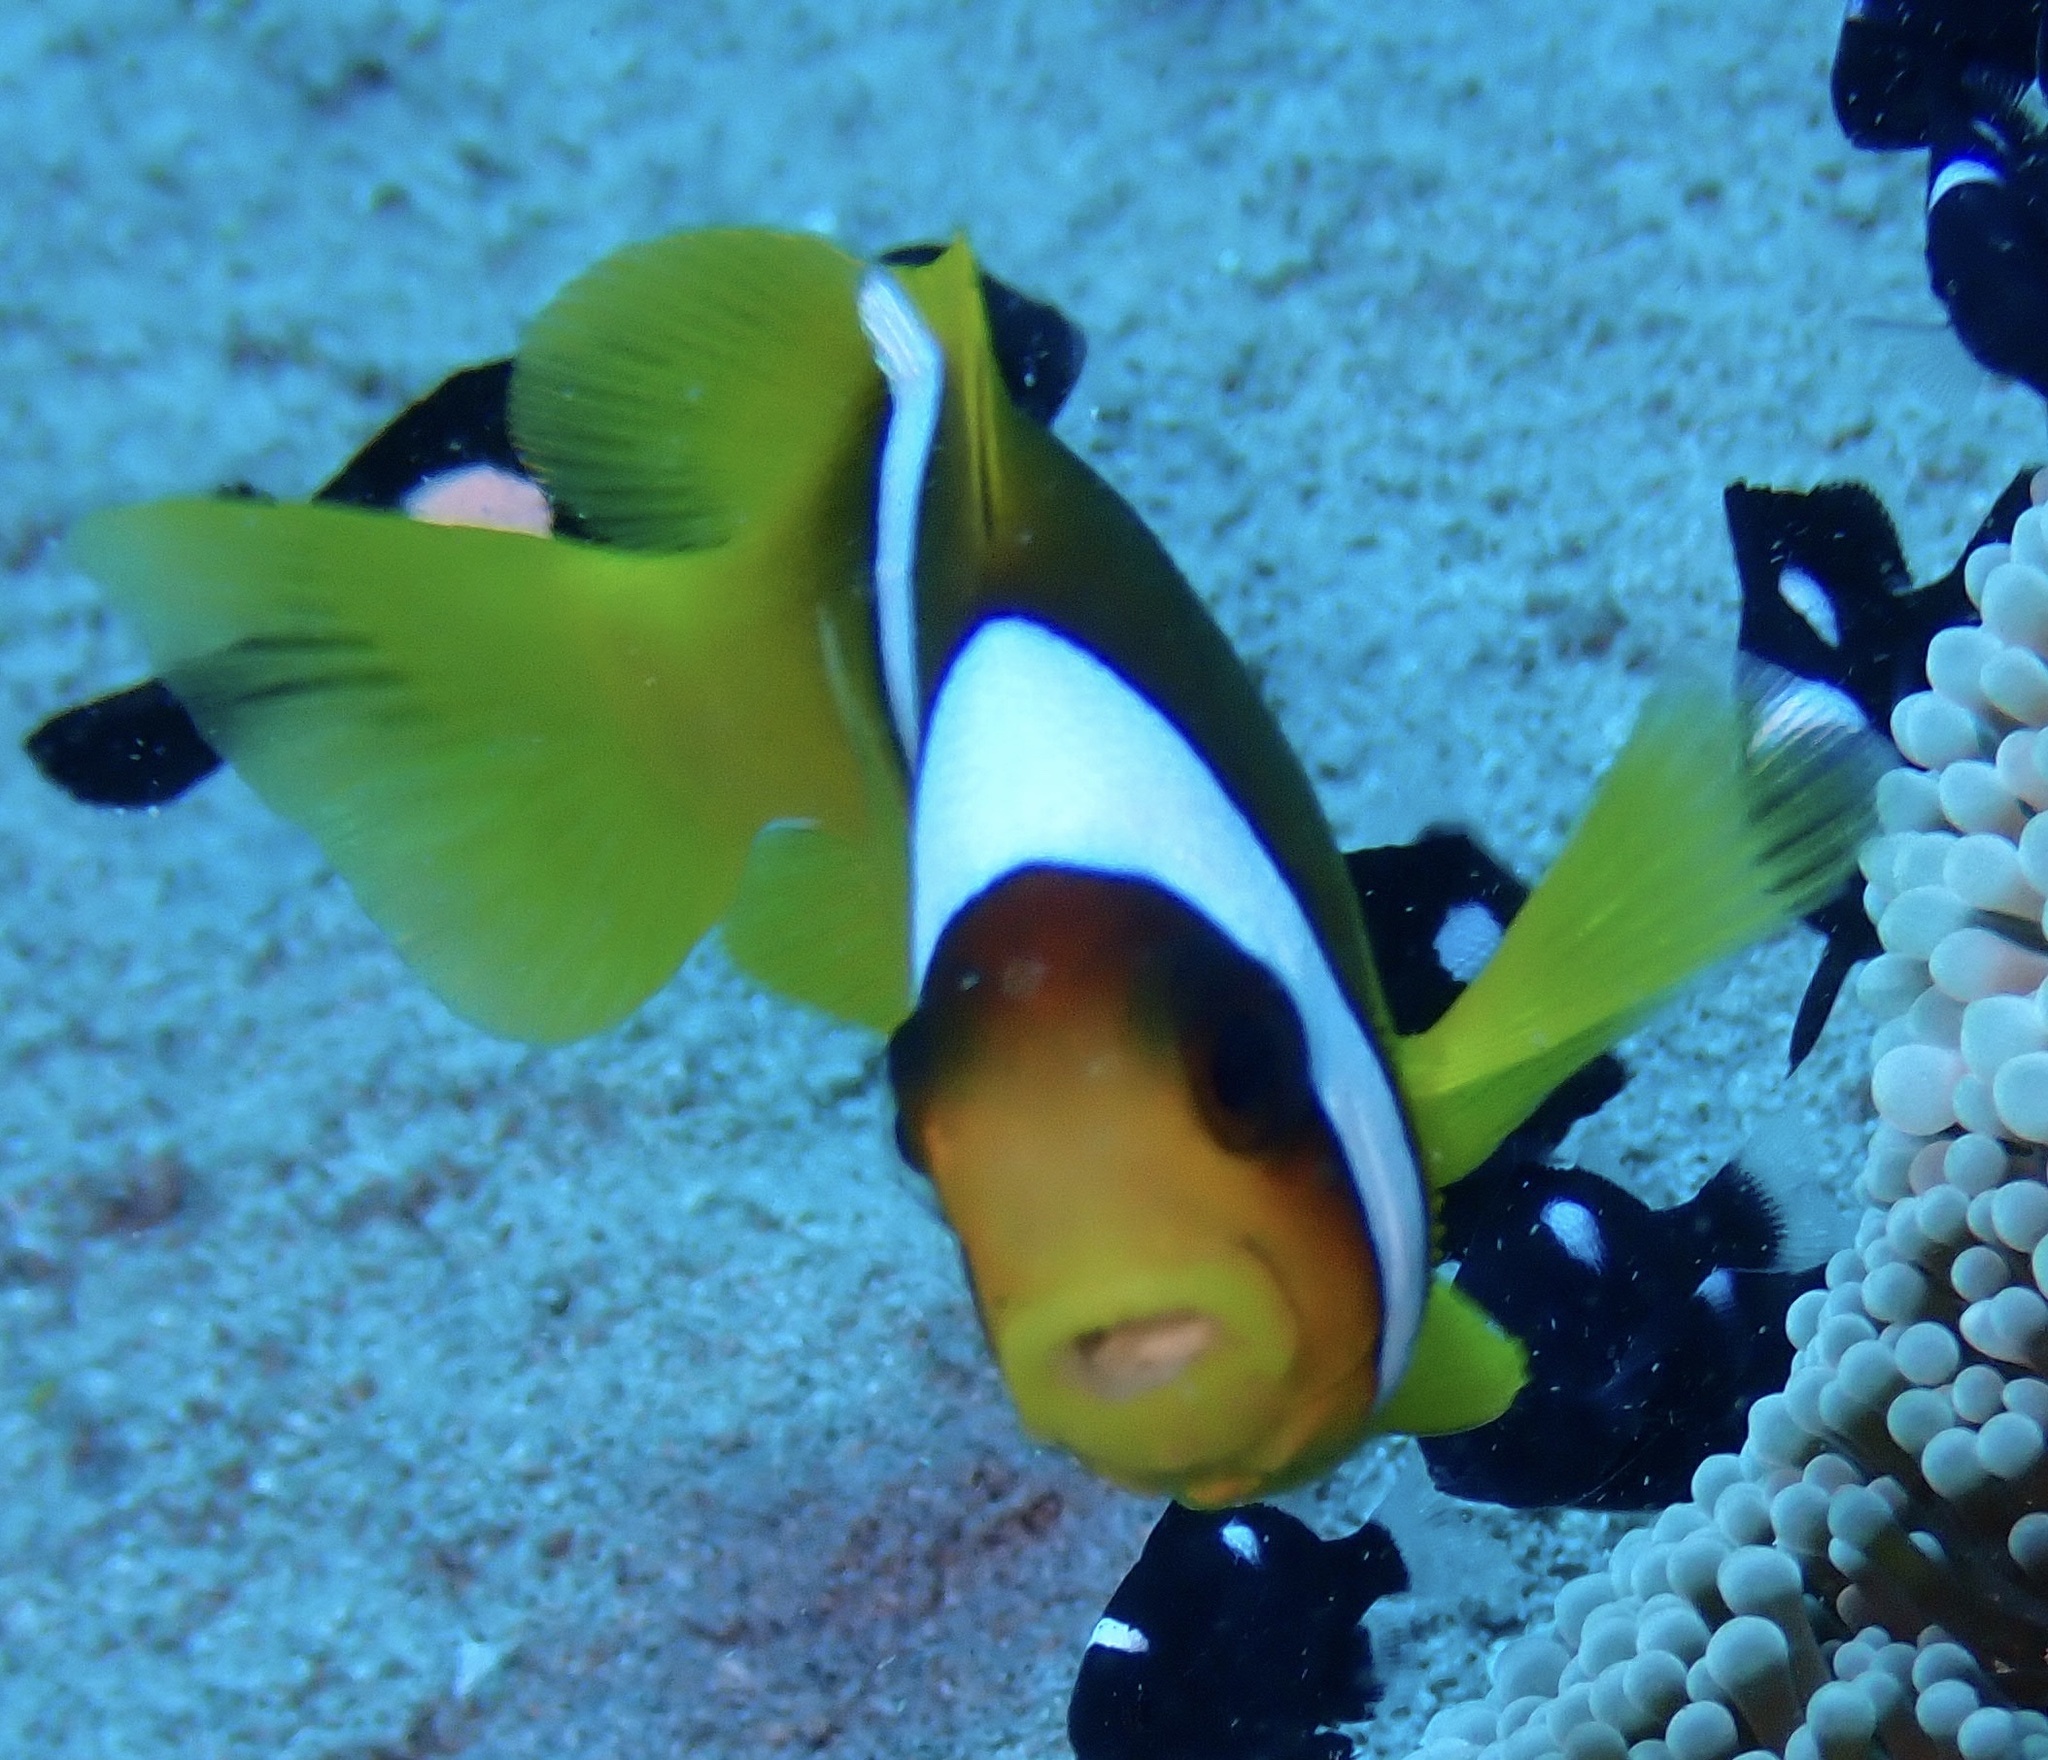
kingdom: Animalia
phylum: Chordata
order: Perciformes
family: Pomacentridae
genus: Amphiprion
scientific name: Amphiprion bicinctus
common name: Two-banded anemonefish
